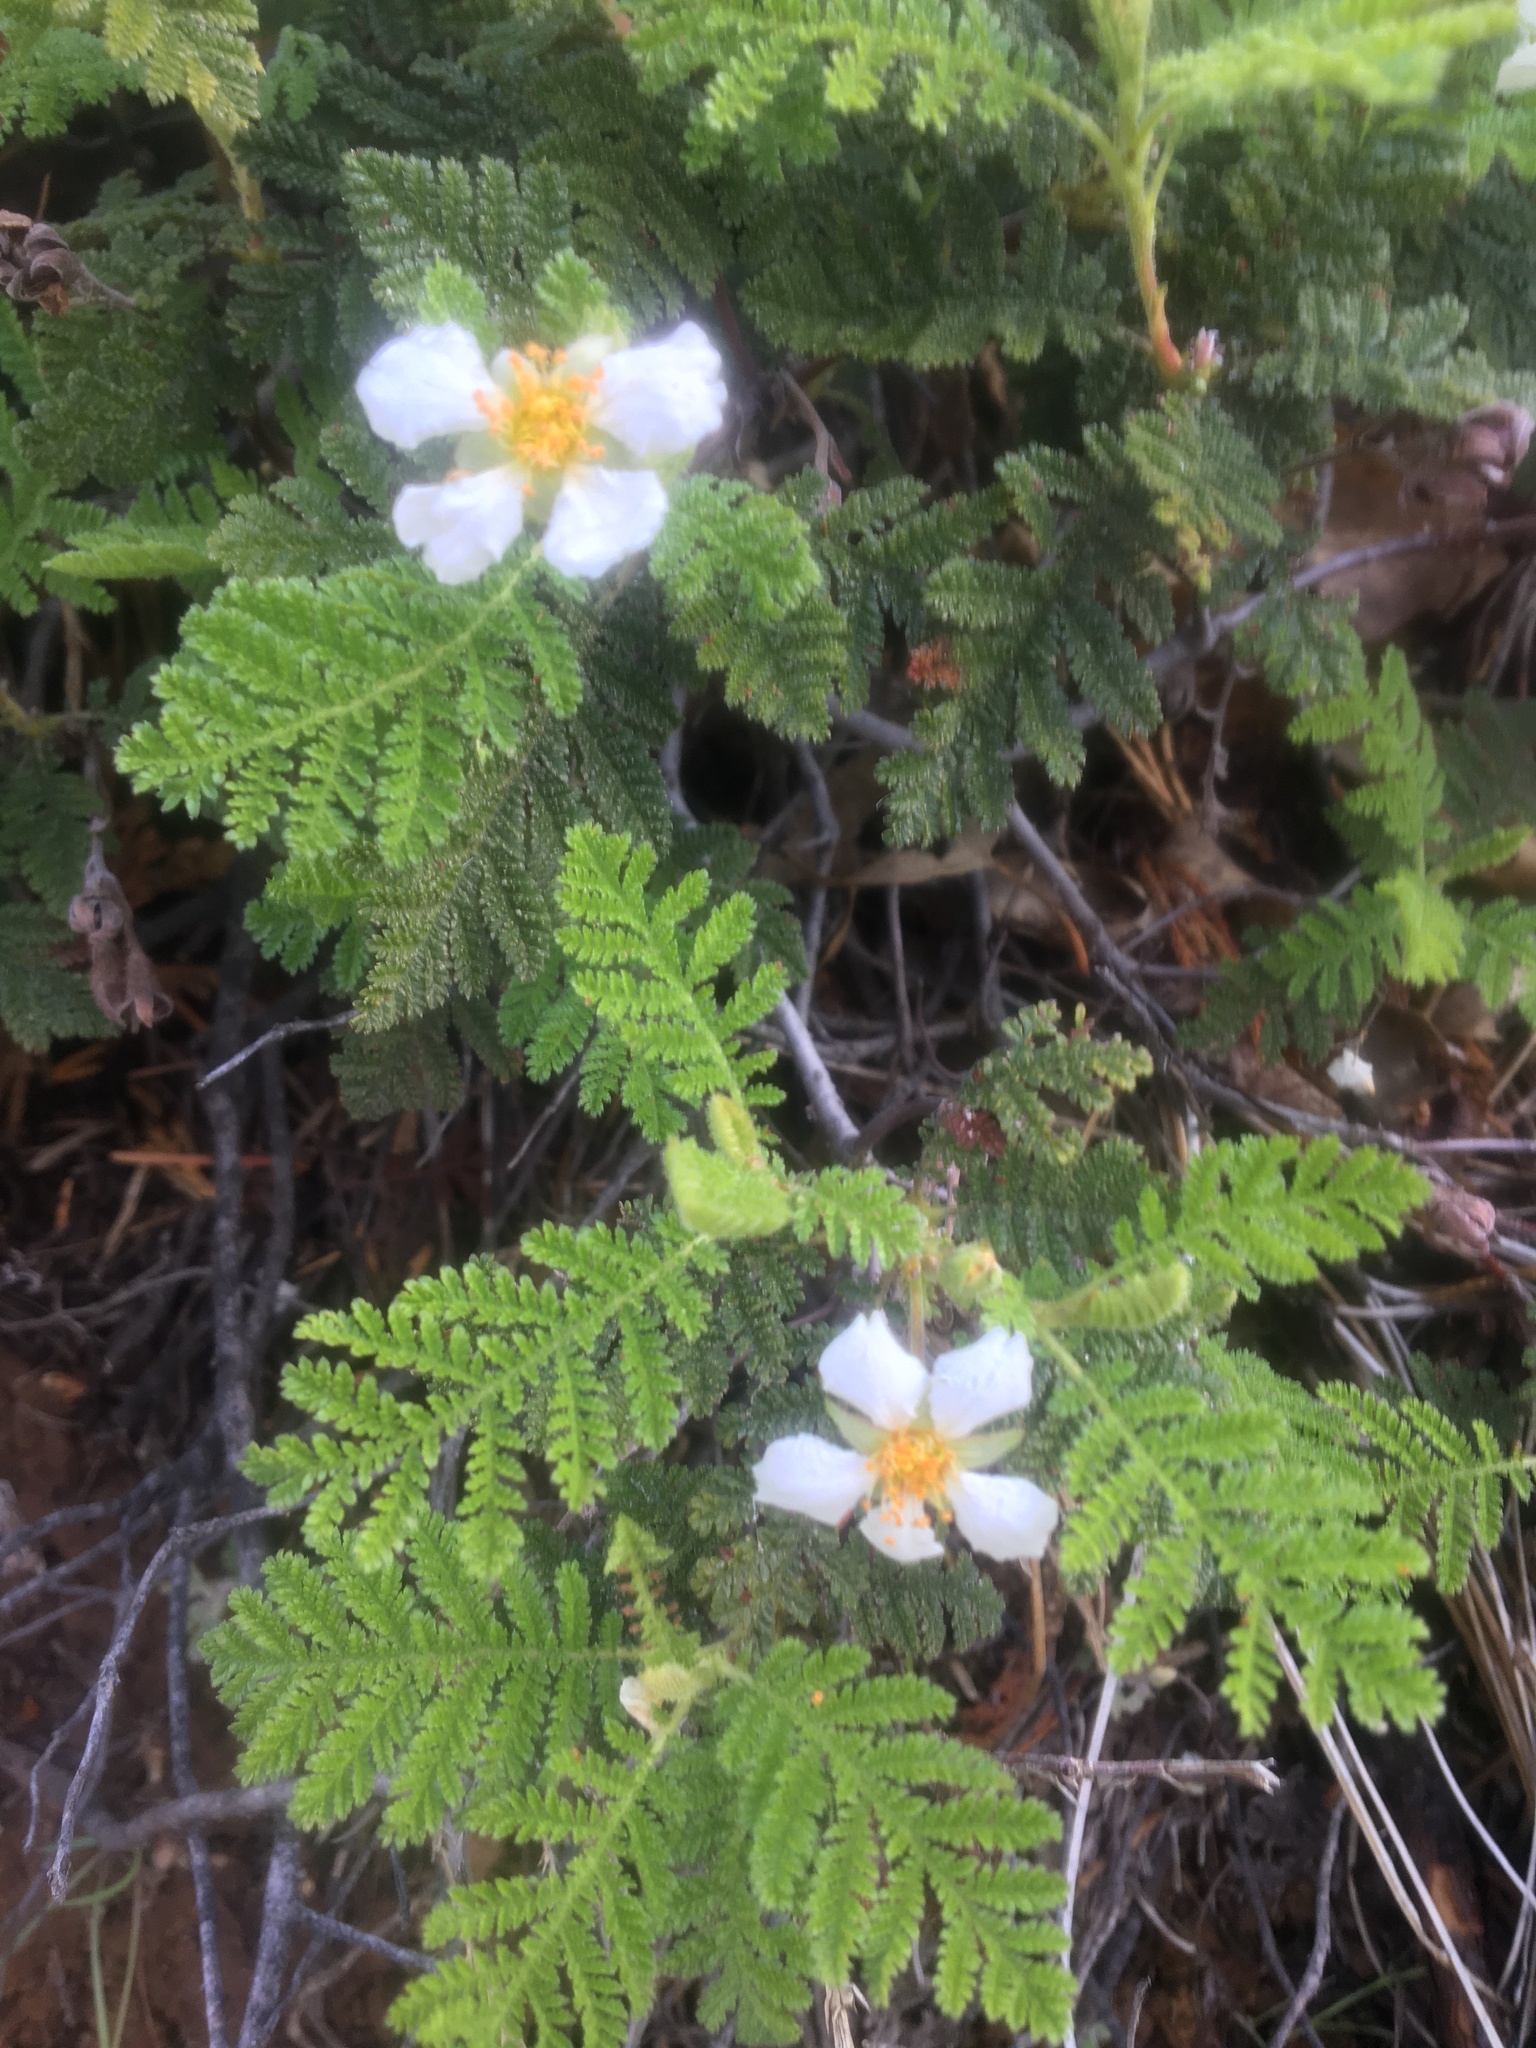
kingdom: Plantae
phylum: Tracheophyta
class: Magnoliopsida
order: Rosales
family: Rosaceae
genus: Chamaebatia
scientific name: Chamaebatia foliolosa
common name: Mountain misery
